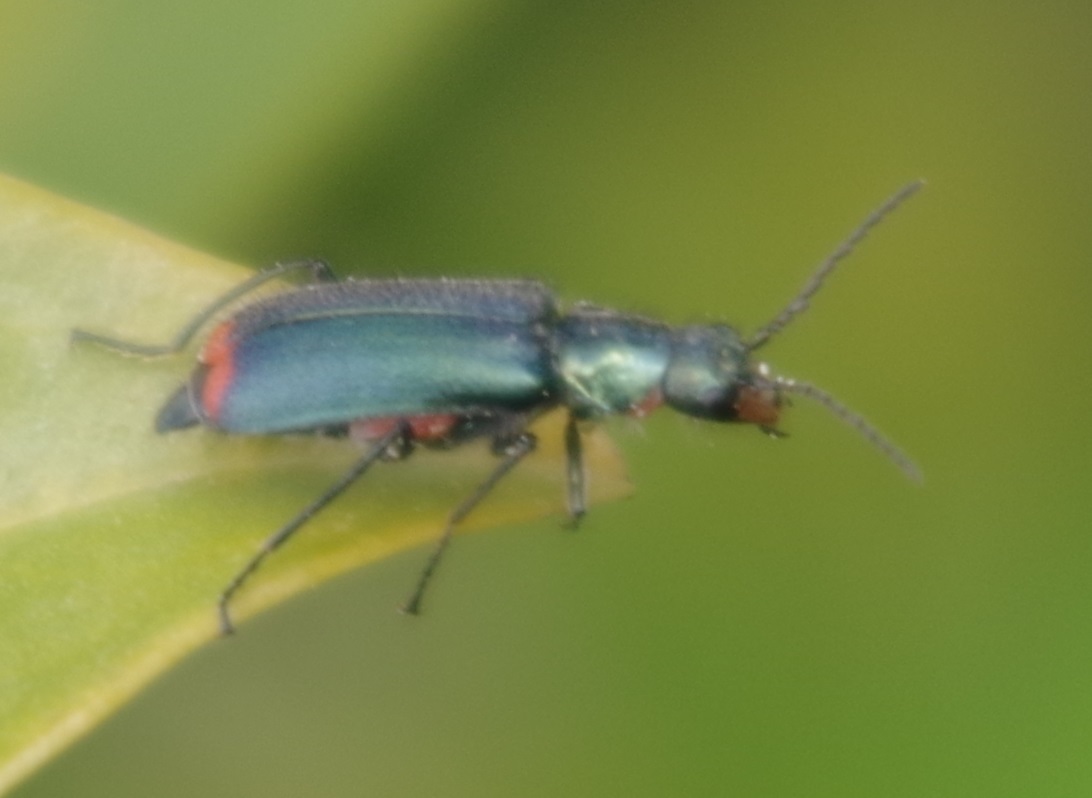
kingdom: Animalia
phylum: Arthropoda
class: Insecta
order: Coleoptera
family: Melyridae
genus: Malachius
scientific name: Malachius bipustulatus
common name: Malachite beetle
